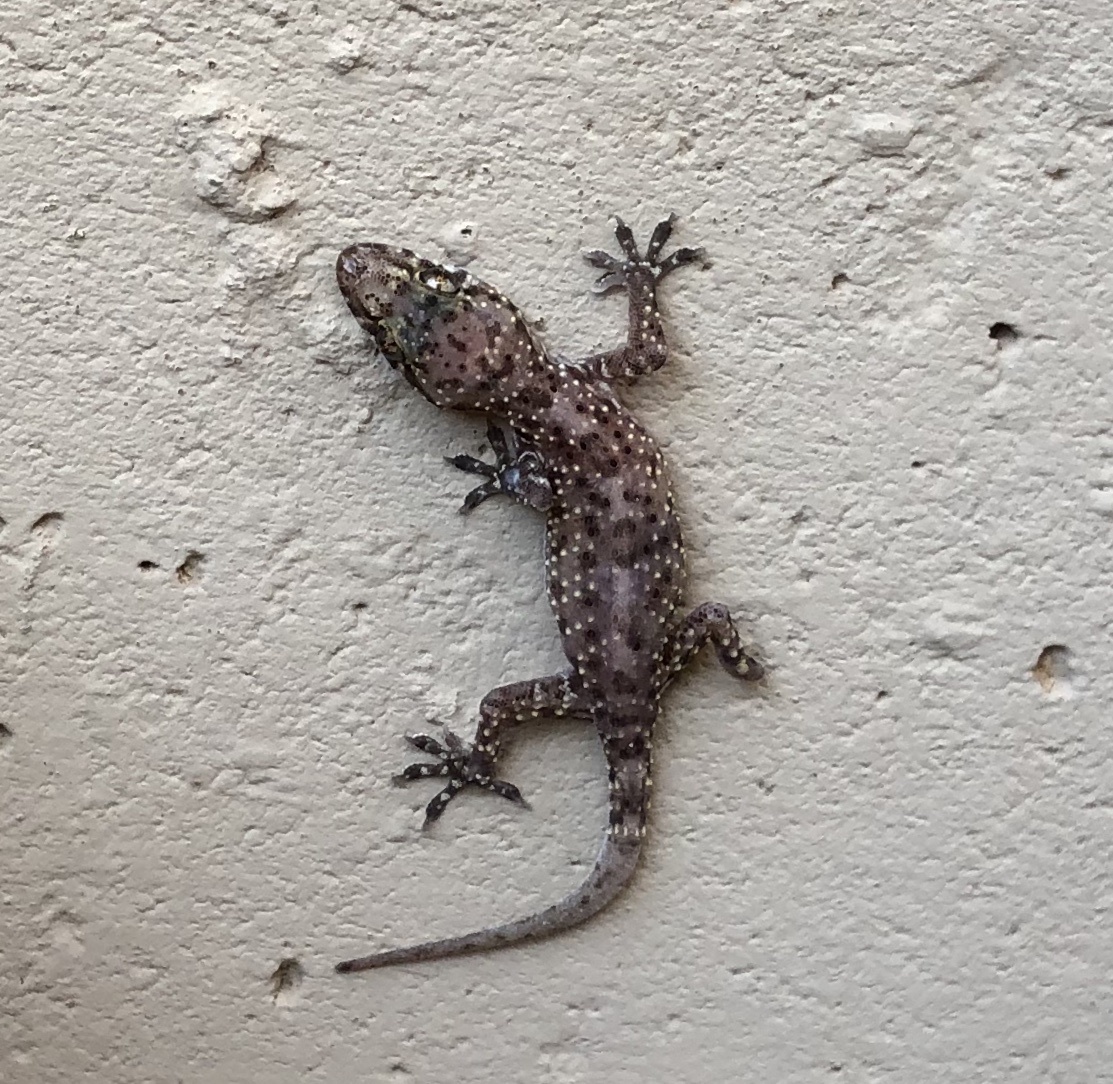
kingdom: Animalia
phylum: Chordata
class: Squamata
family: Gekkonidae
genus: Hemidactylus
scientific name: Hemidactylus turcicus
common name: Turkish gecko
